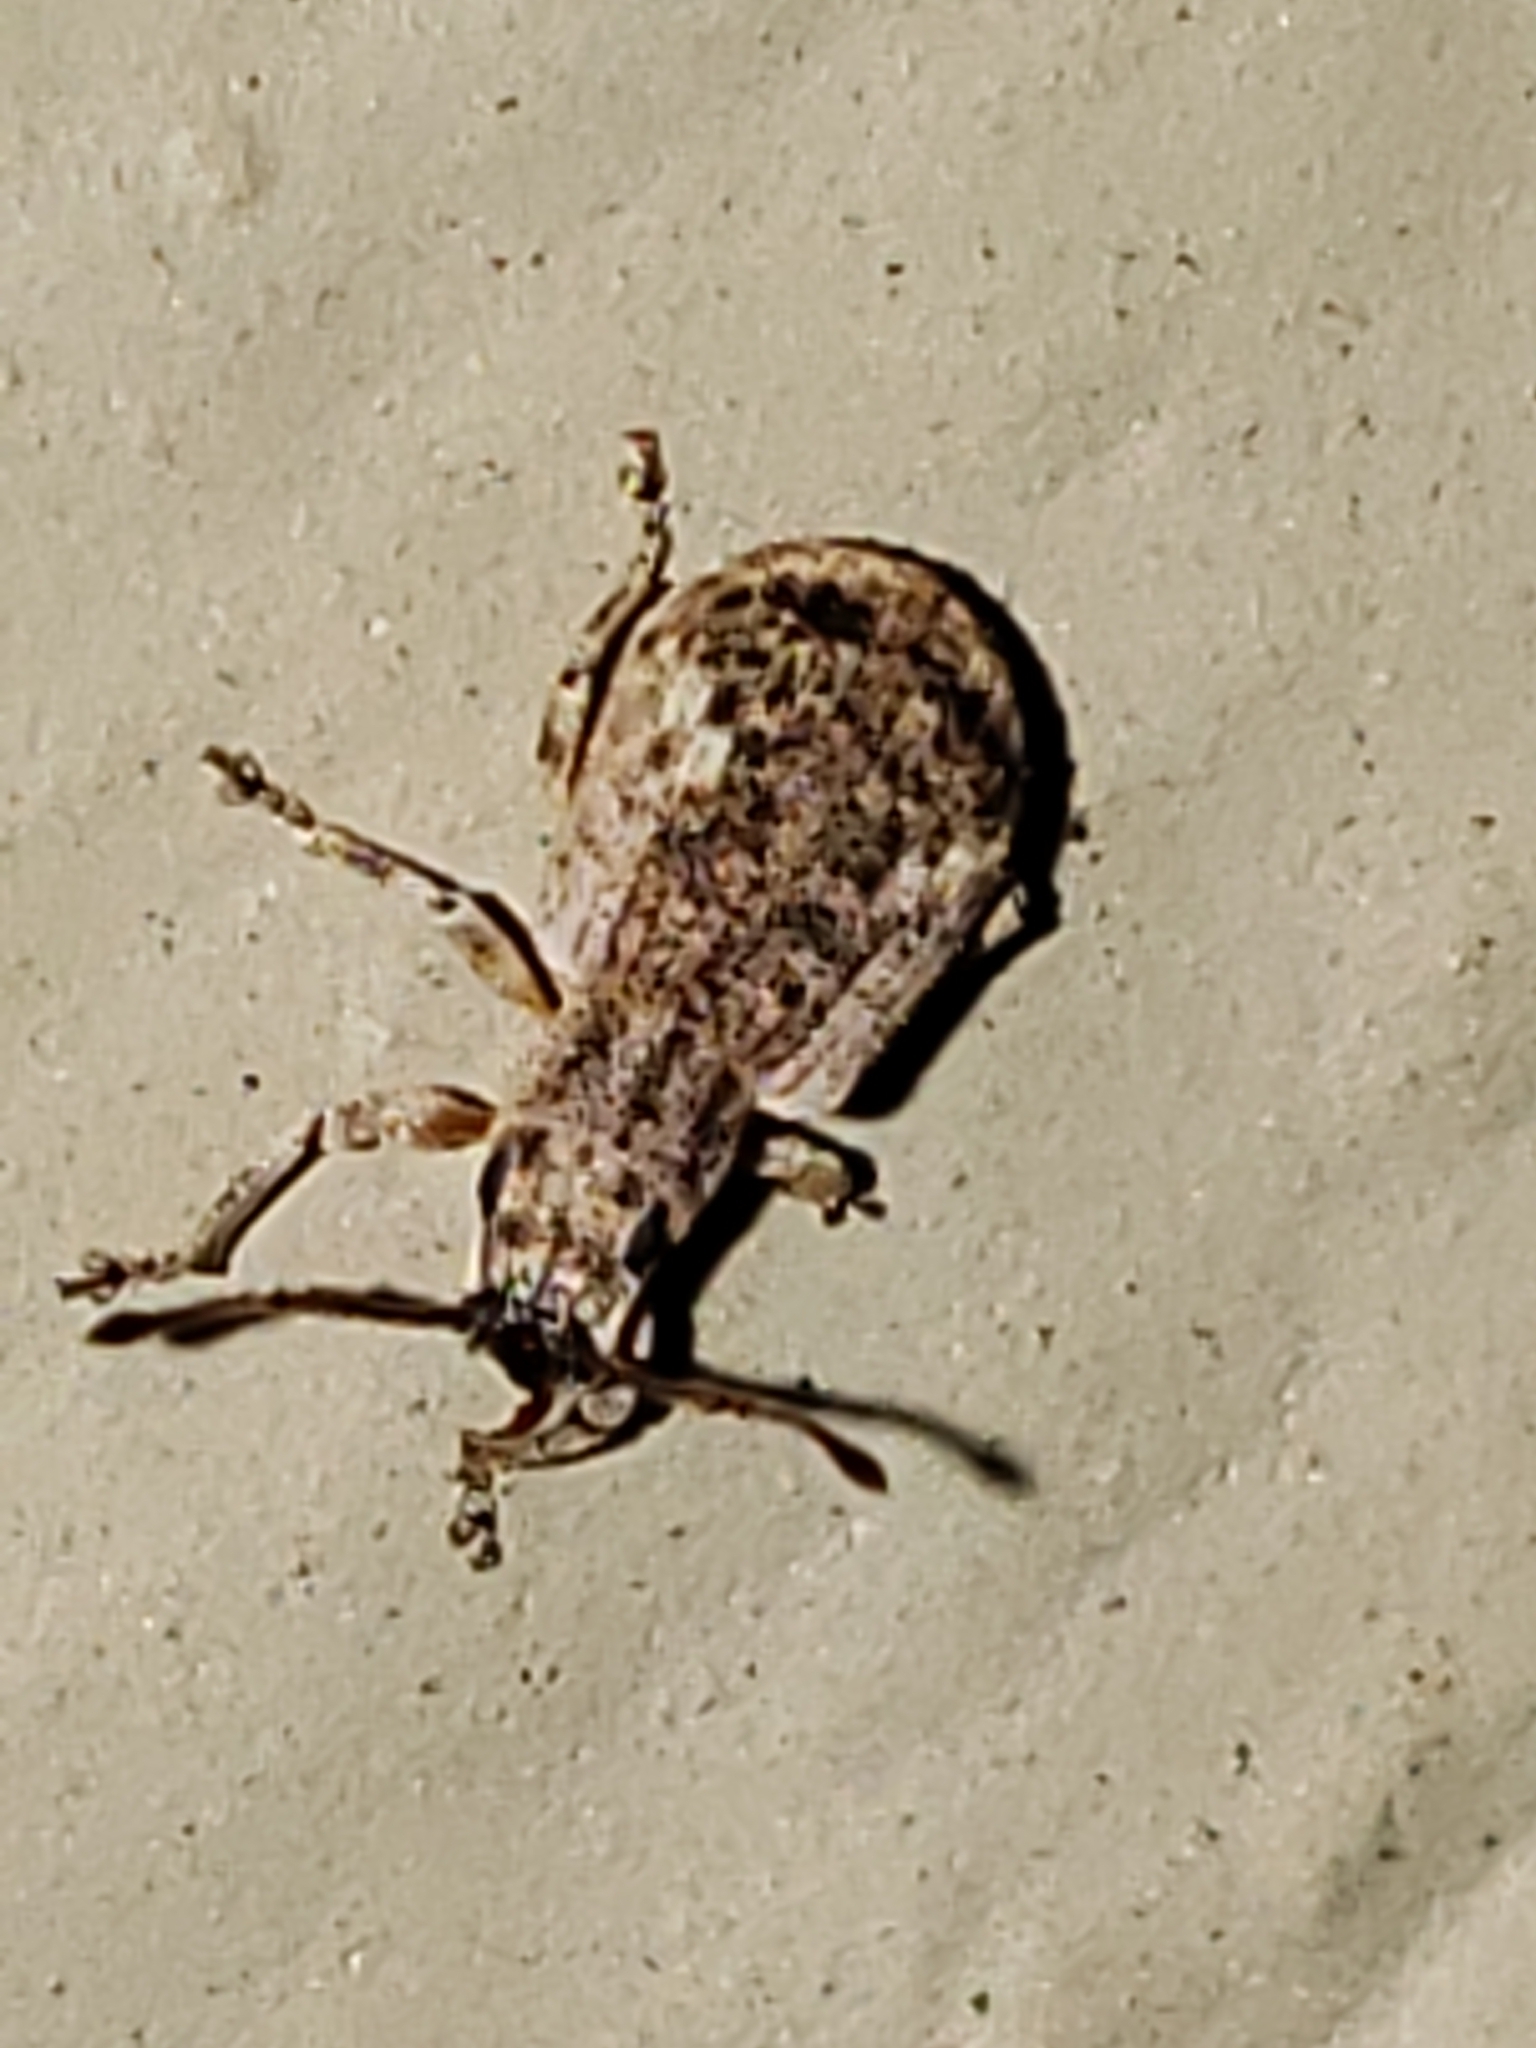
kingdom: Animalia
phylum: Arthropoda
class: Insecta
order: Coleoptera
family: Curculionidae
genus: Pseudoedophrys
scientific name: Pseudoedophrys hilleri
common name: Weevil
